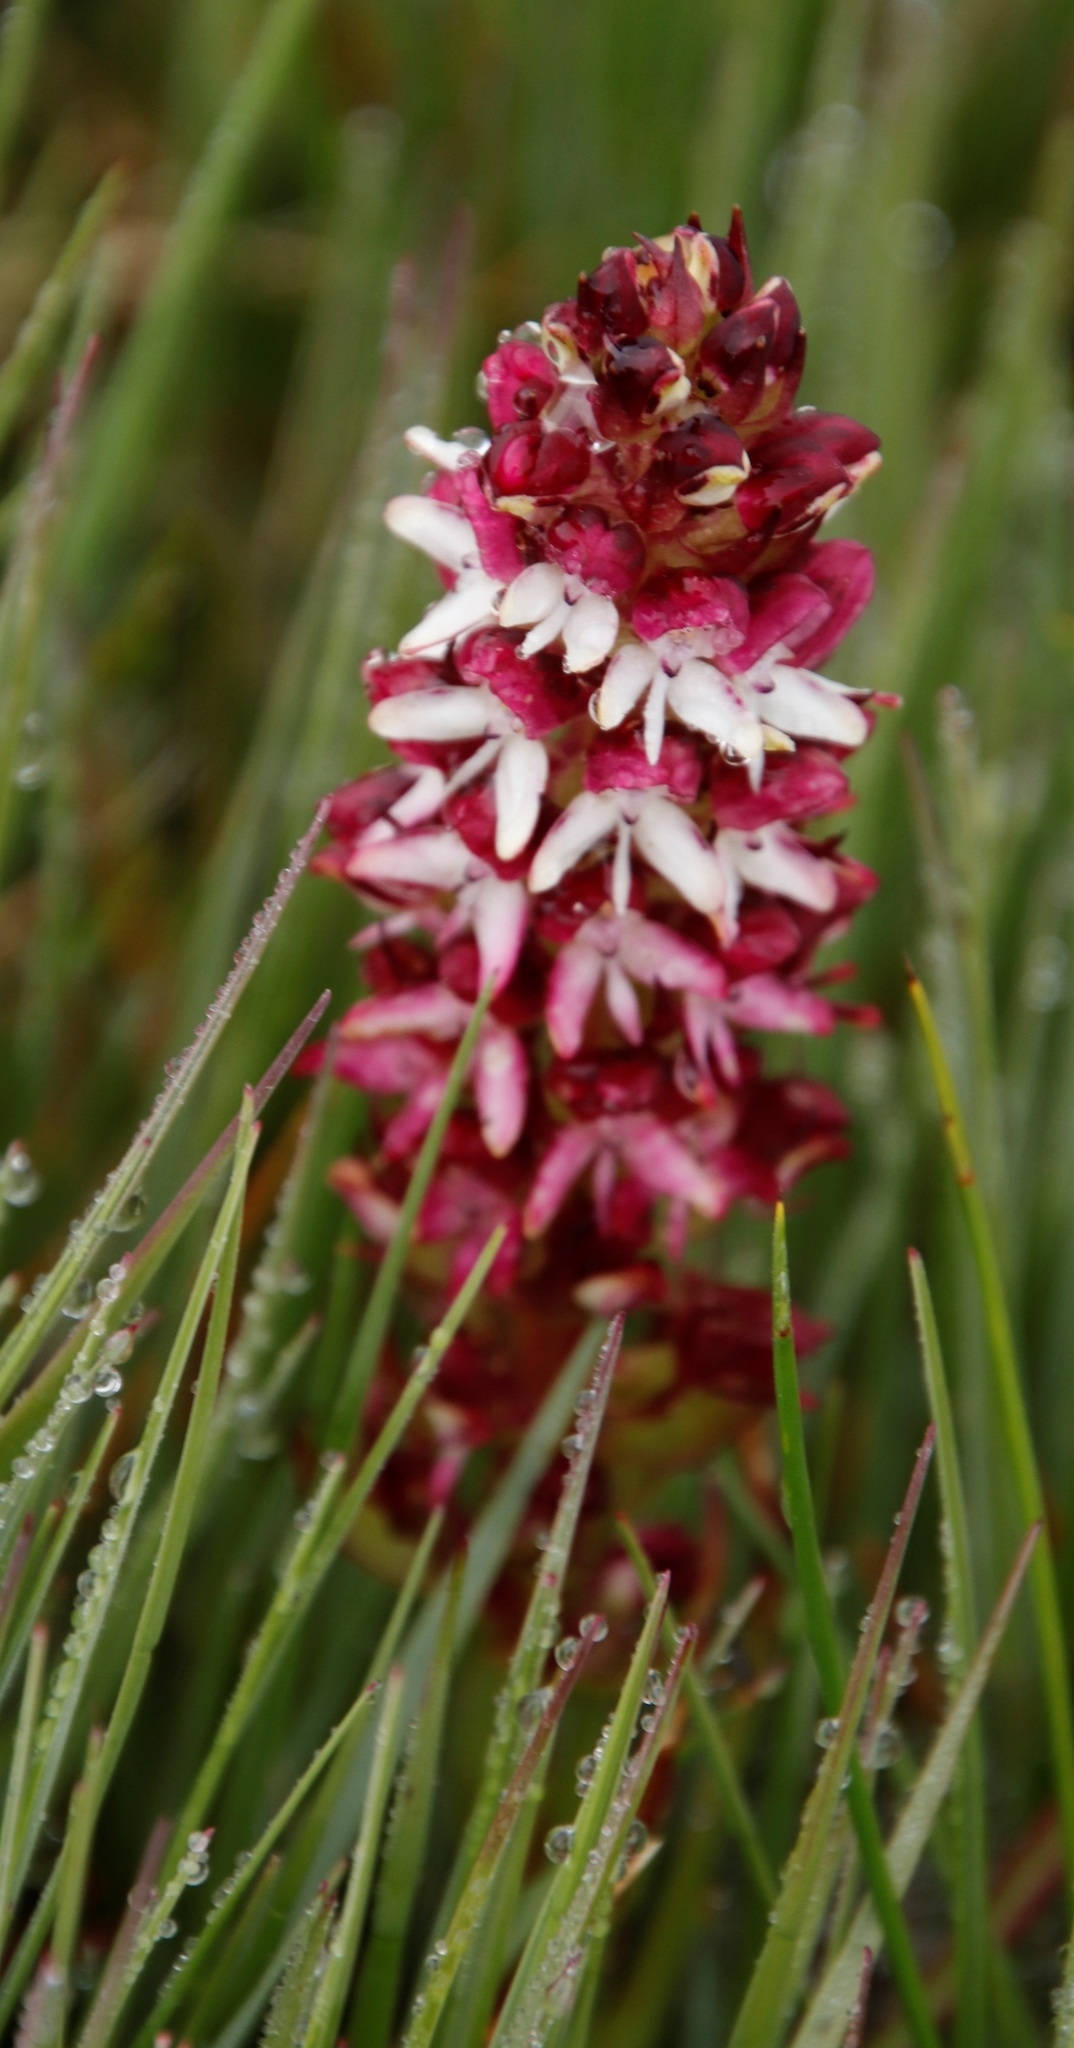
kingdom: Plantae
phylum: Tracheophyta
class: Liliopsida
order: Asparagales
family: Orchidaceae
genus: Disa
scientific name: Disa albomagentea
